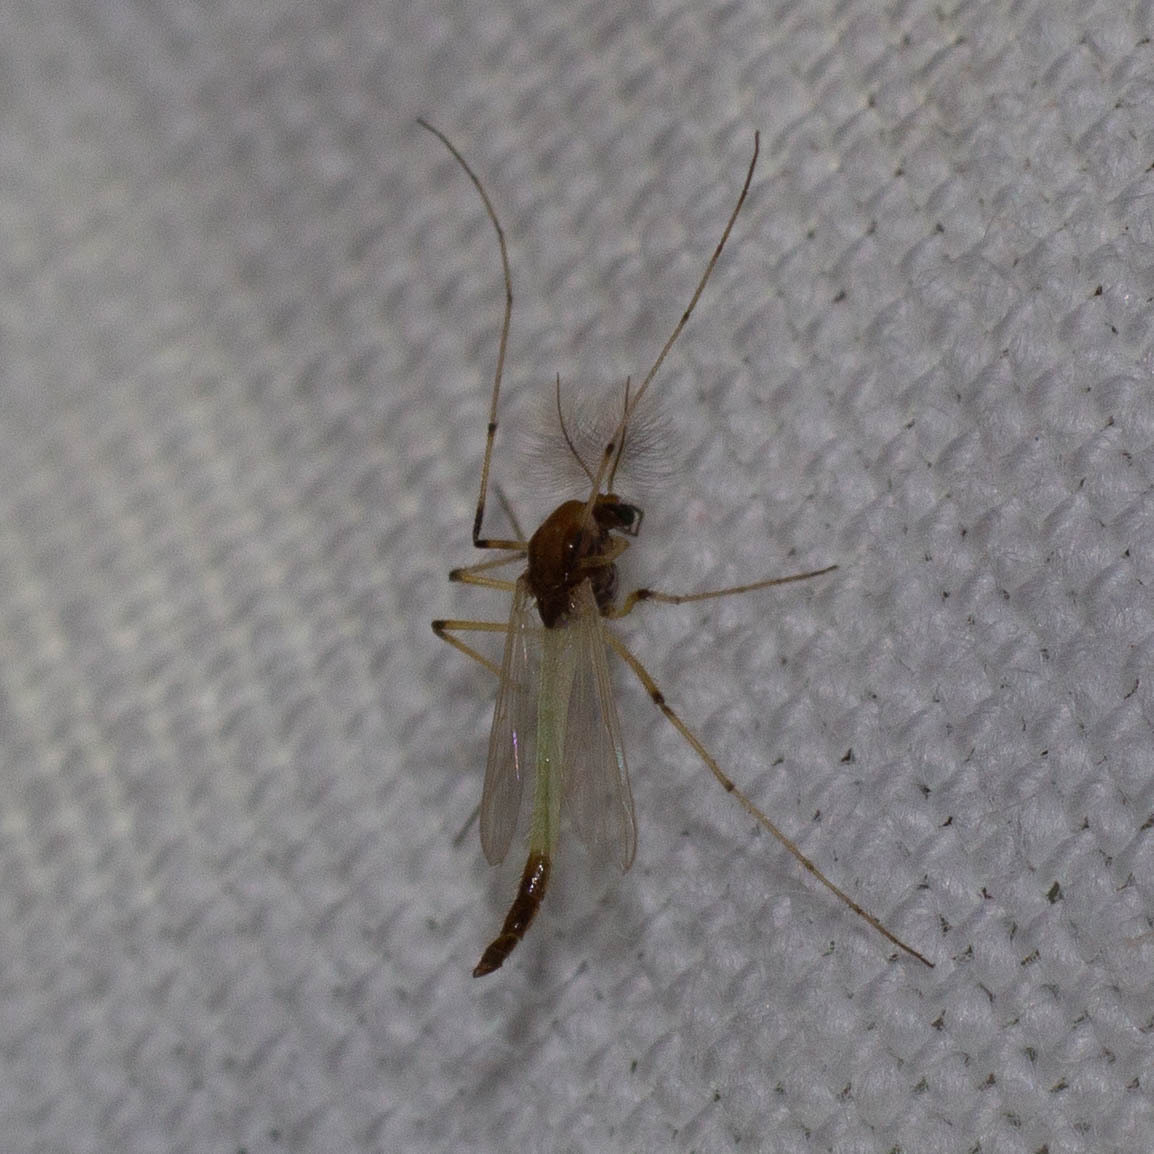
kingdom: Animalia
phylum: Arthropoda
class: Insecta
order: Diptera
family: Chironomidae
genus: Microtendipes
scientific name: Microtendipes pedellus
